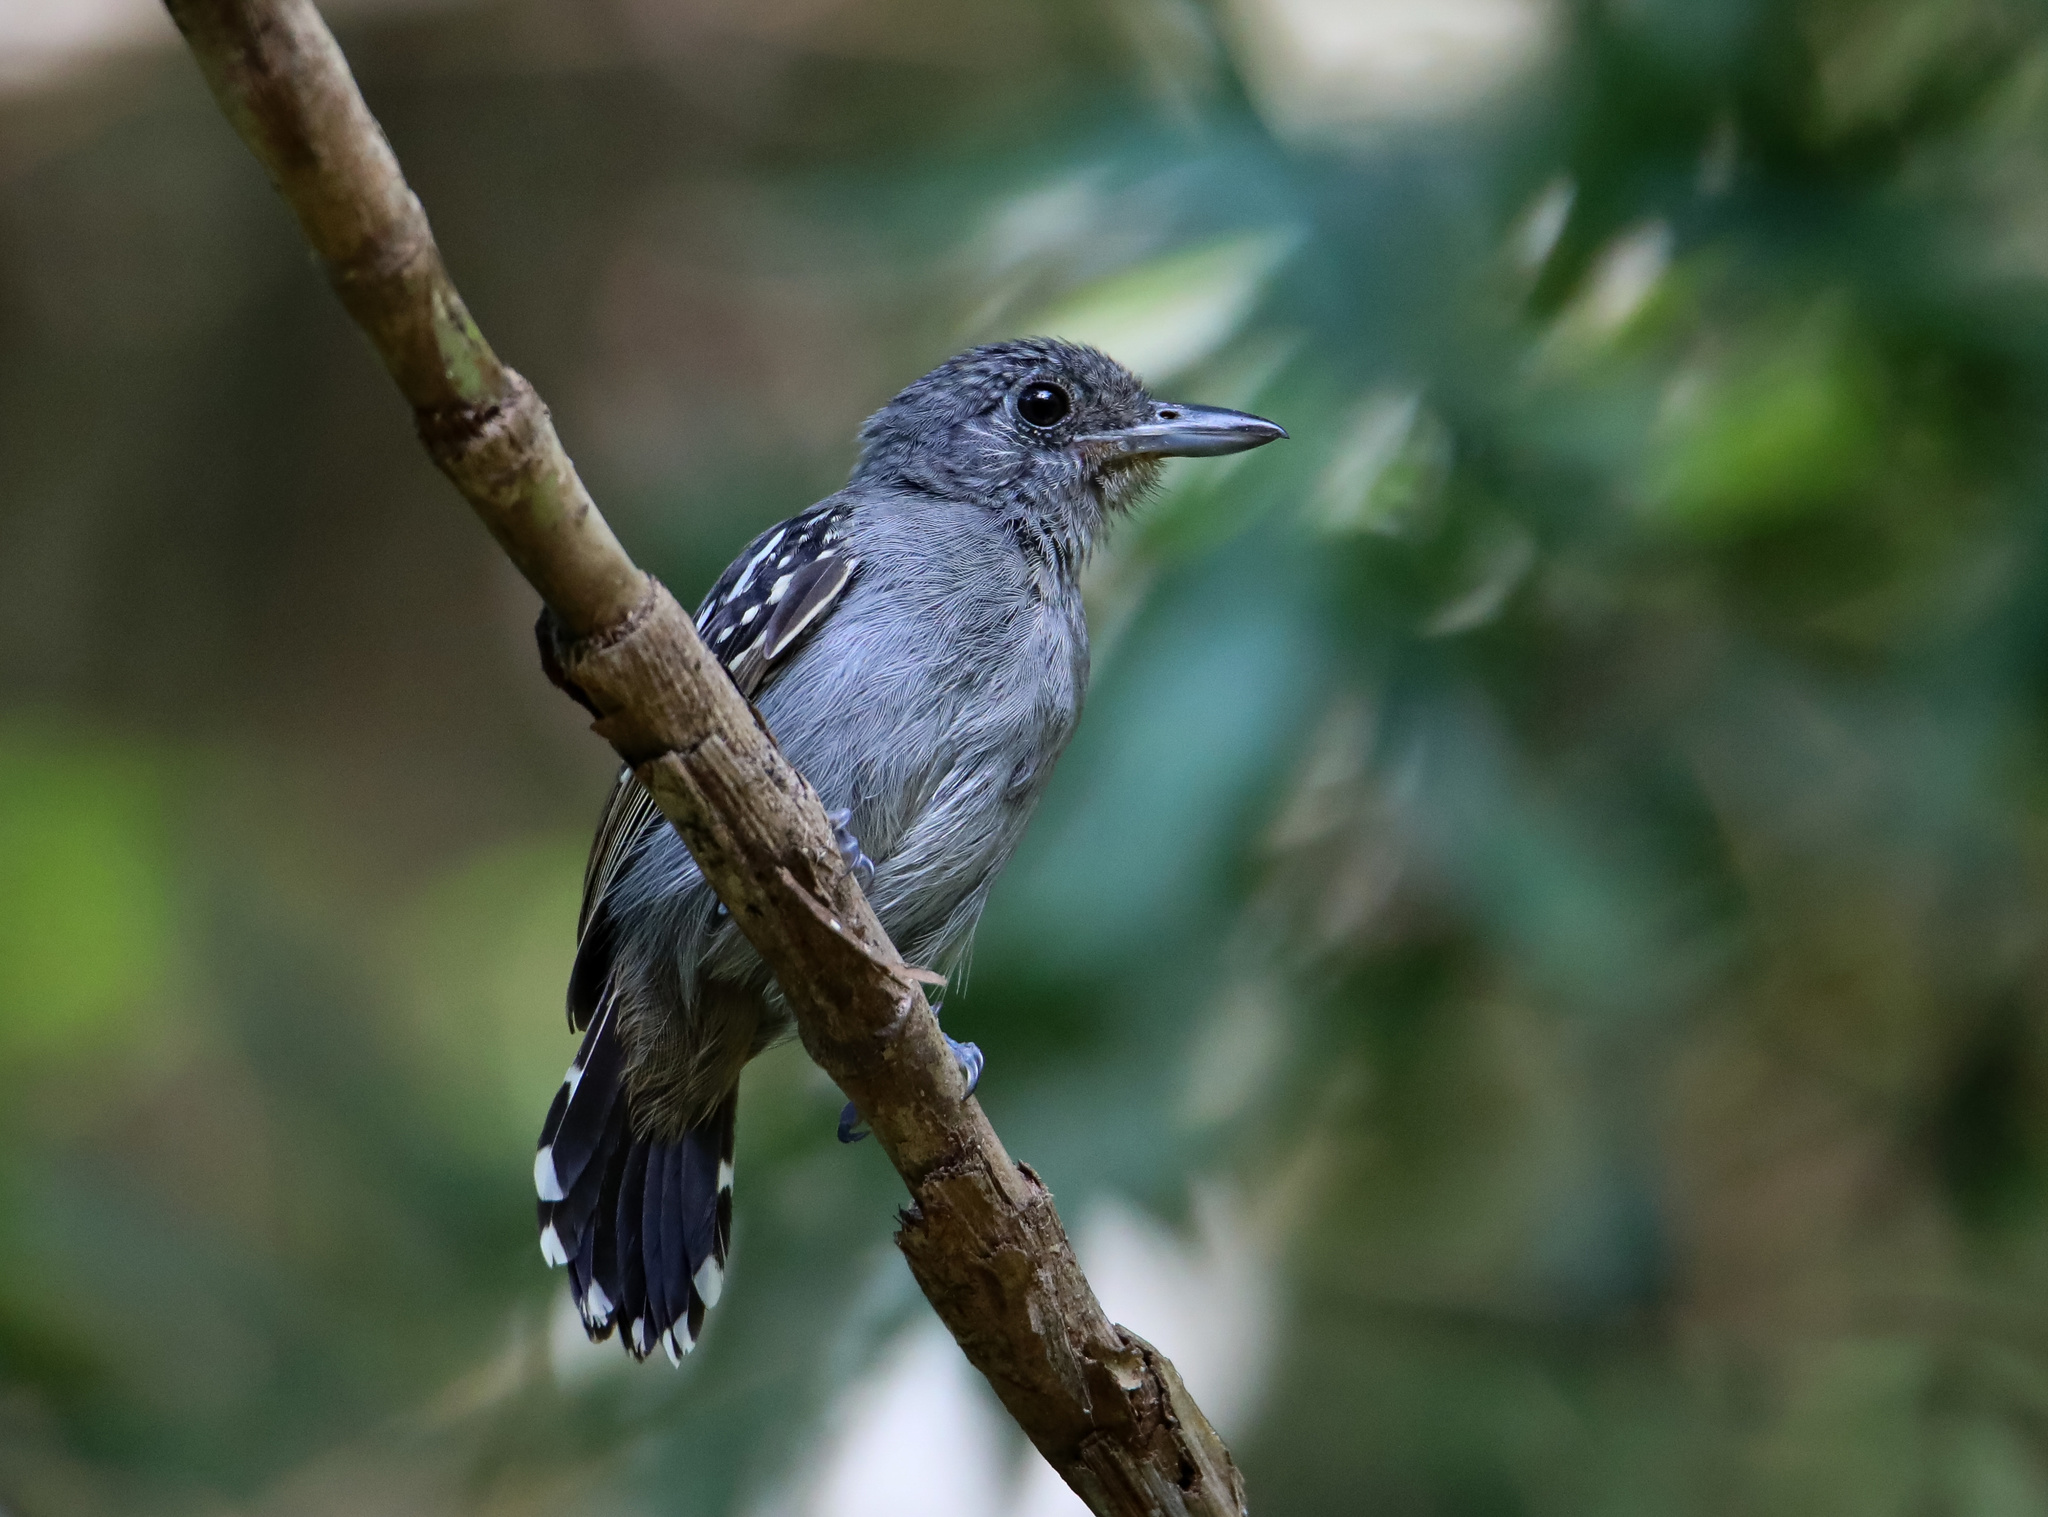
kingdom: Animalia
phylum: Chordata
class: Aves
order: Passeriformes
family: Thamnophilidae
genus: Thamnophilus
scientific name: Thamnophilus atrinucha
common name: Black-crowned antshrike
